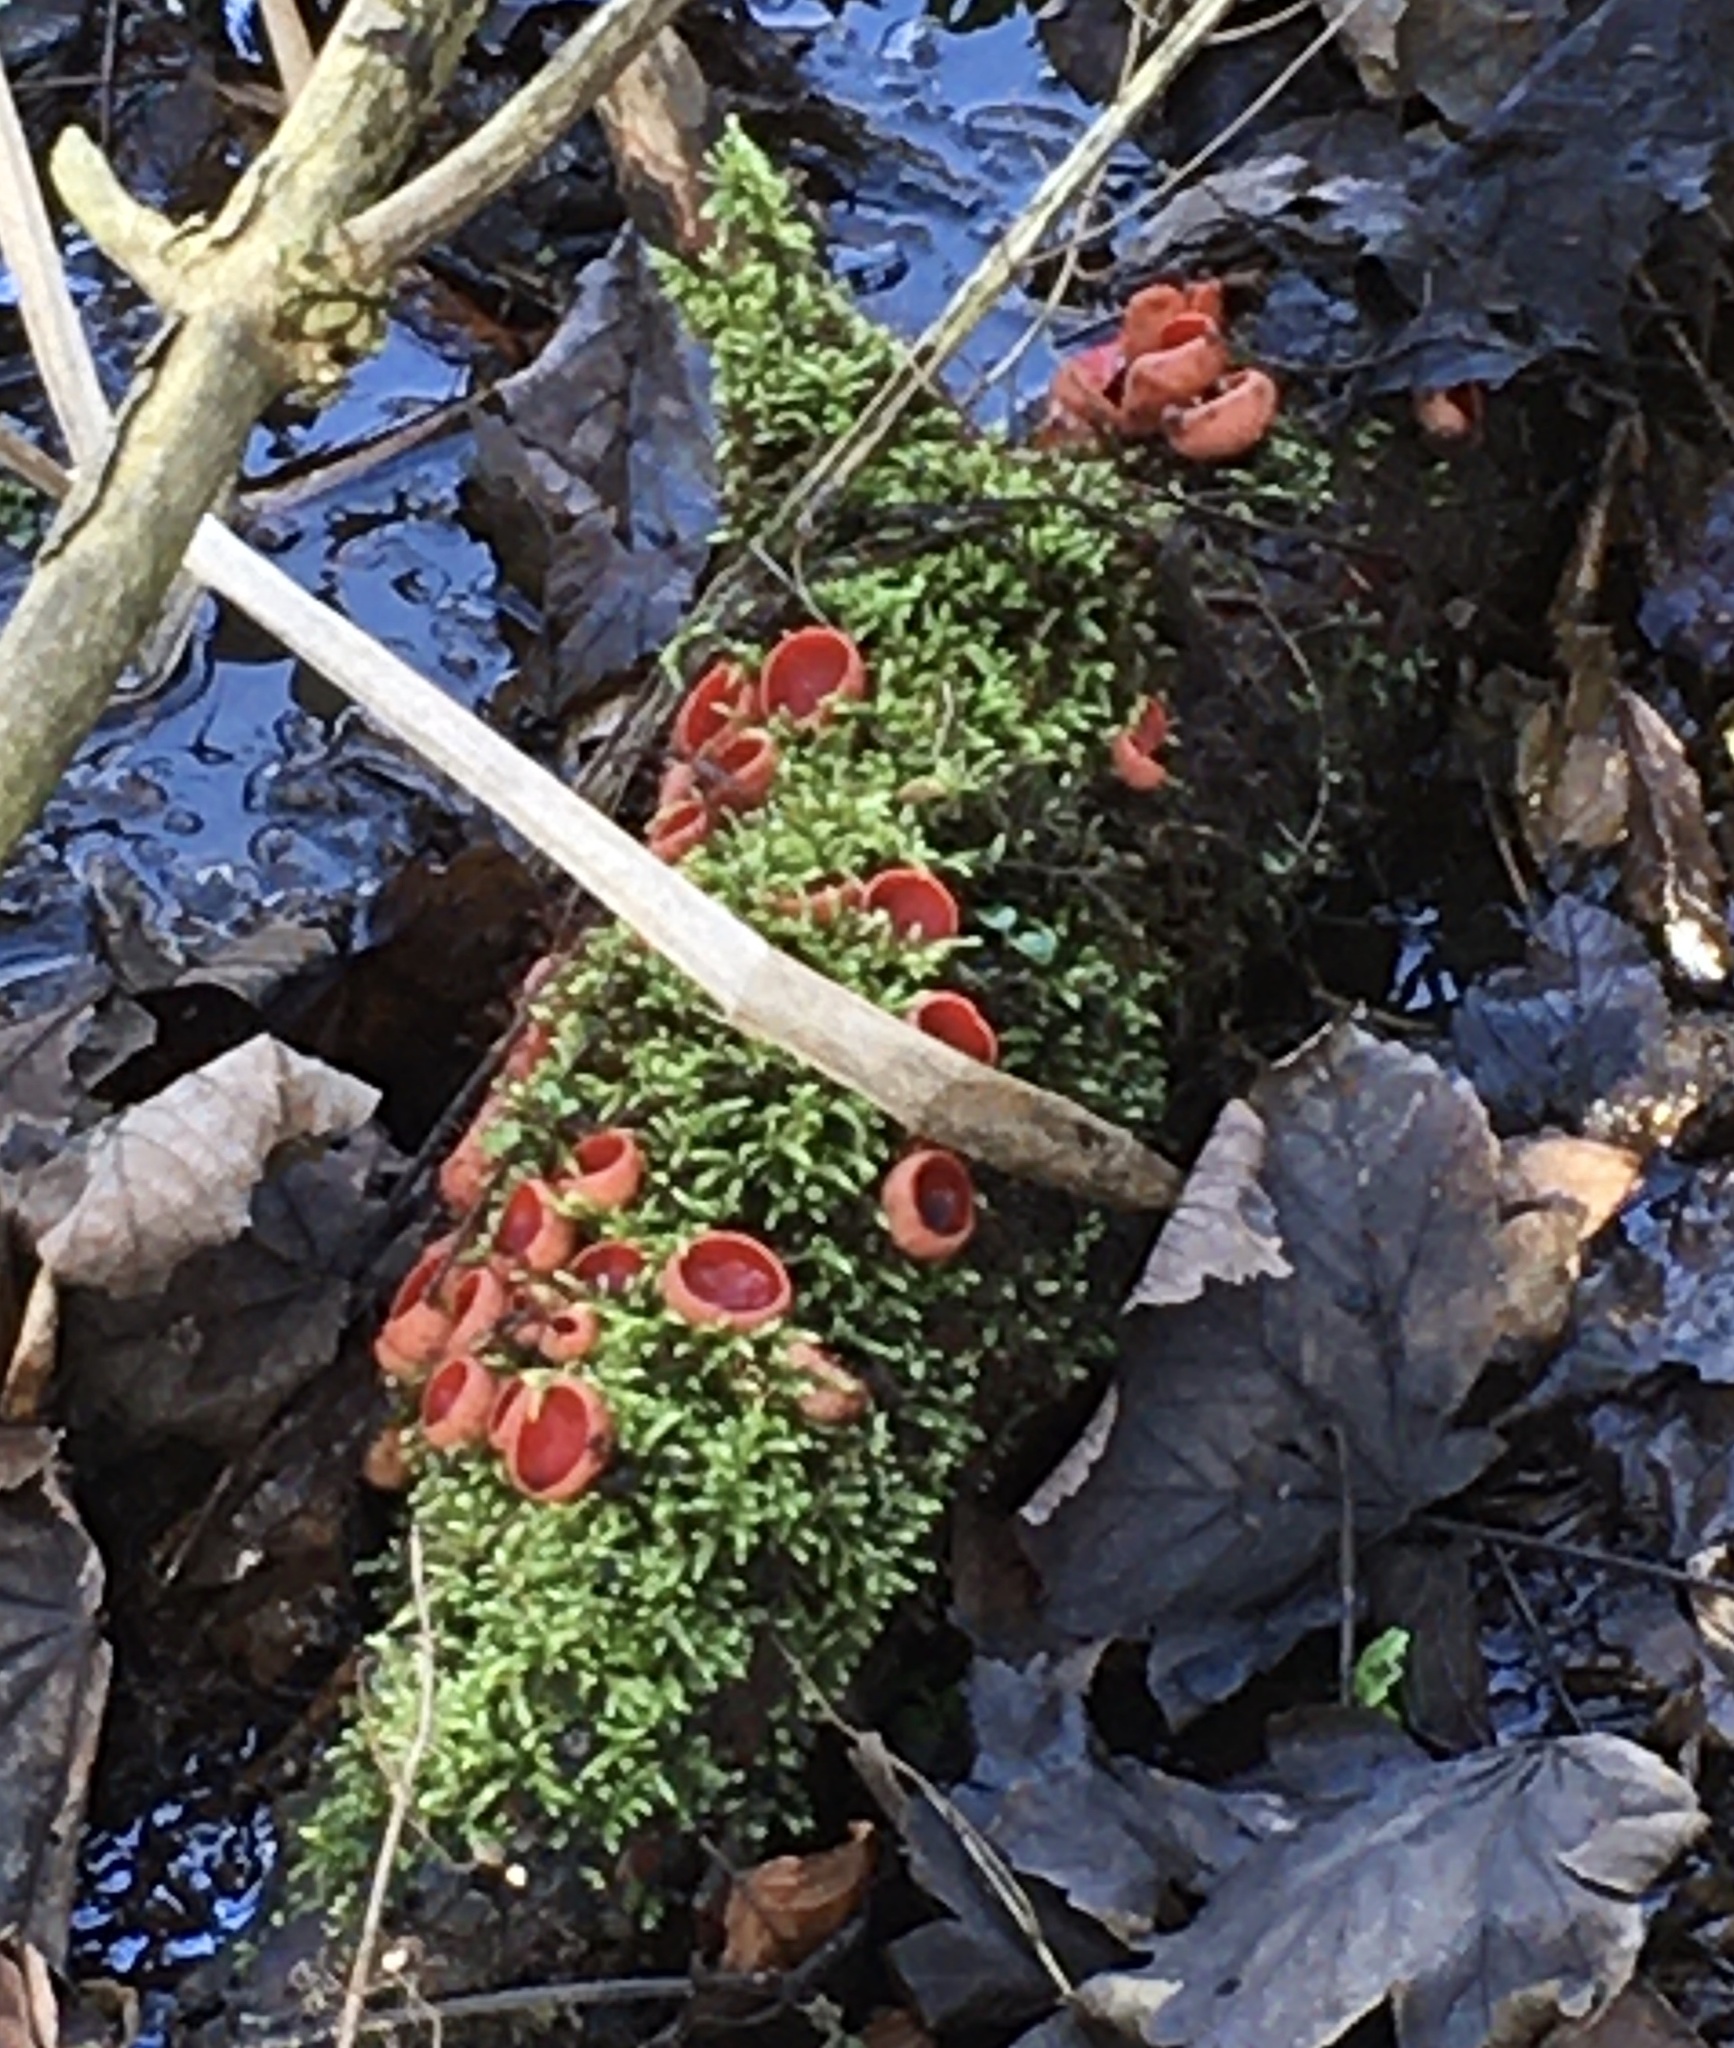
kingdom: Fungi
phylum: Ascomycota
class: Pezizomycetes
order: Pezizales
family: Sarcoscyphaceae
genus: Sarcoscypha
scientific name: Sarcoscypha
